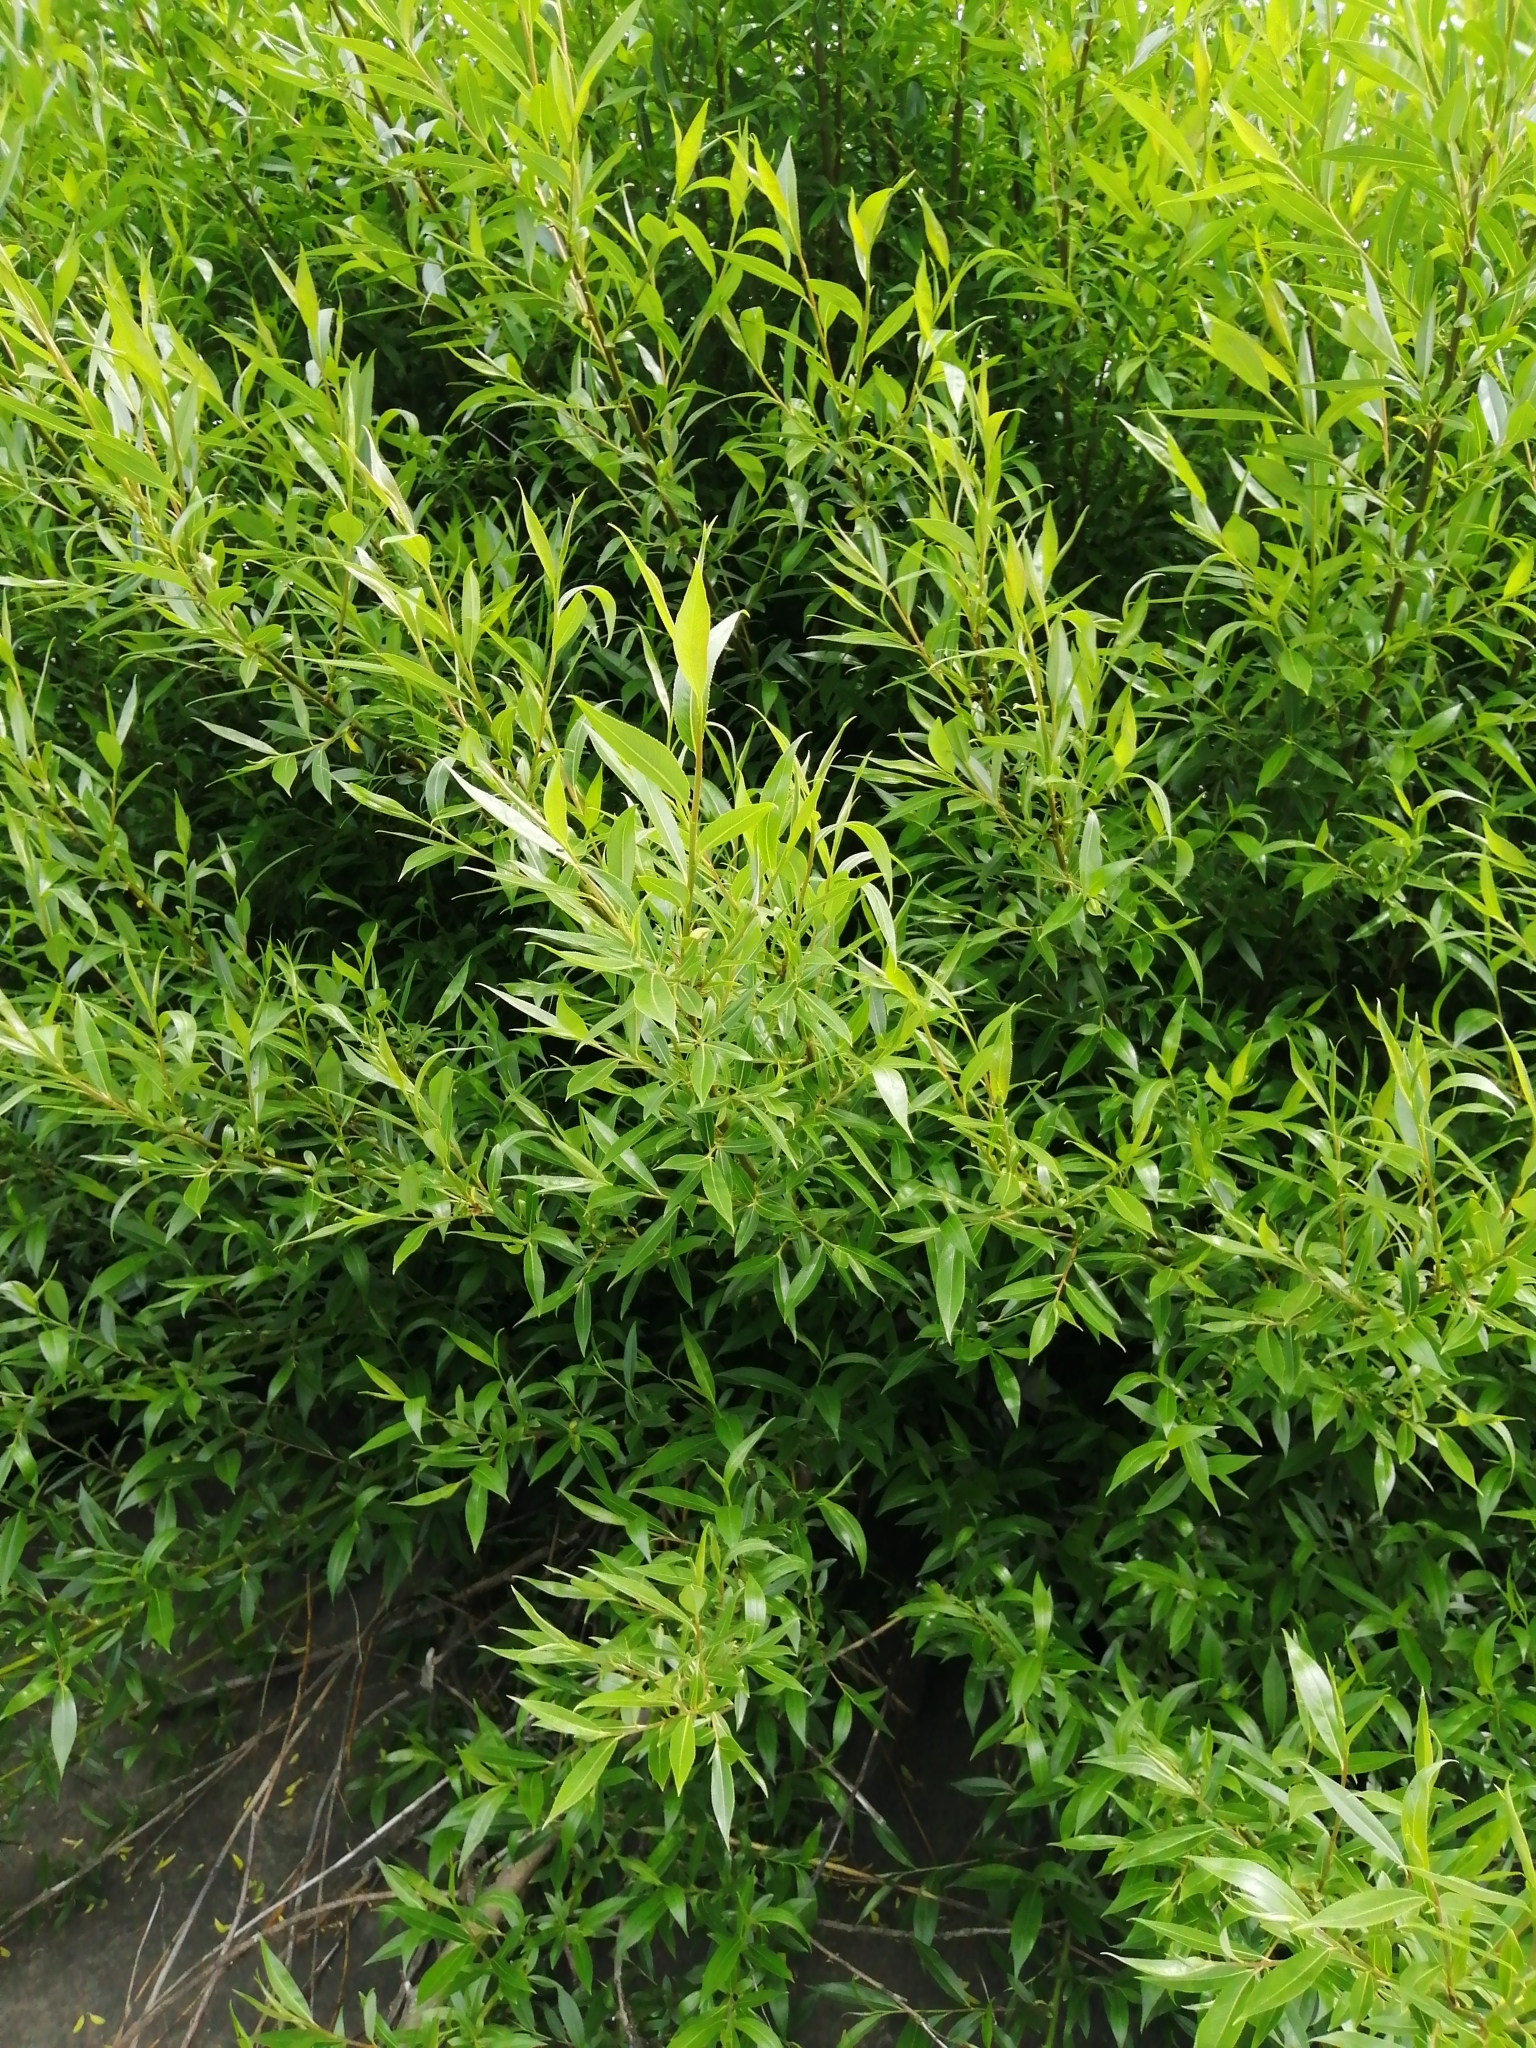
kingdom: Plantae
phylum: Tracheophyta
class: Magnoliopsida
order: Celastrales
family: Celastraceae
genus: Maytenus
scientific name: Maytenus boaria
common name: Mayten
